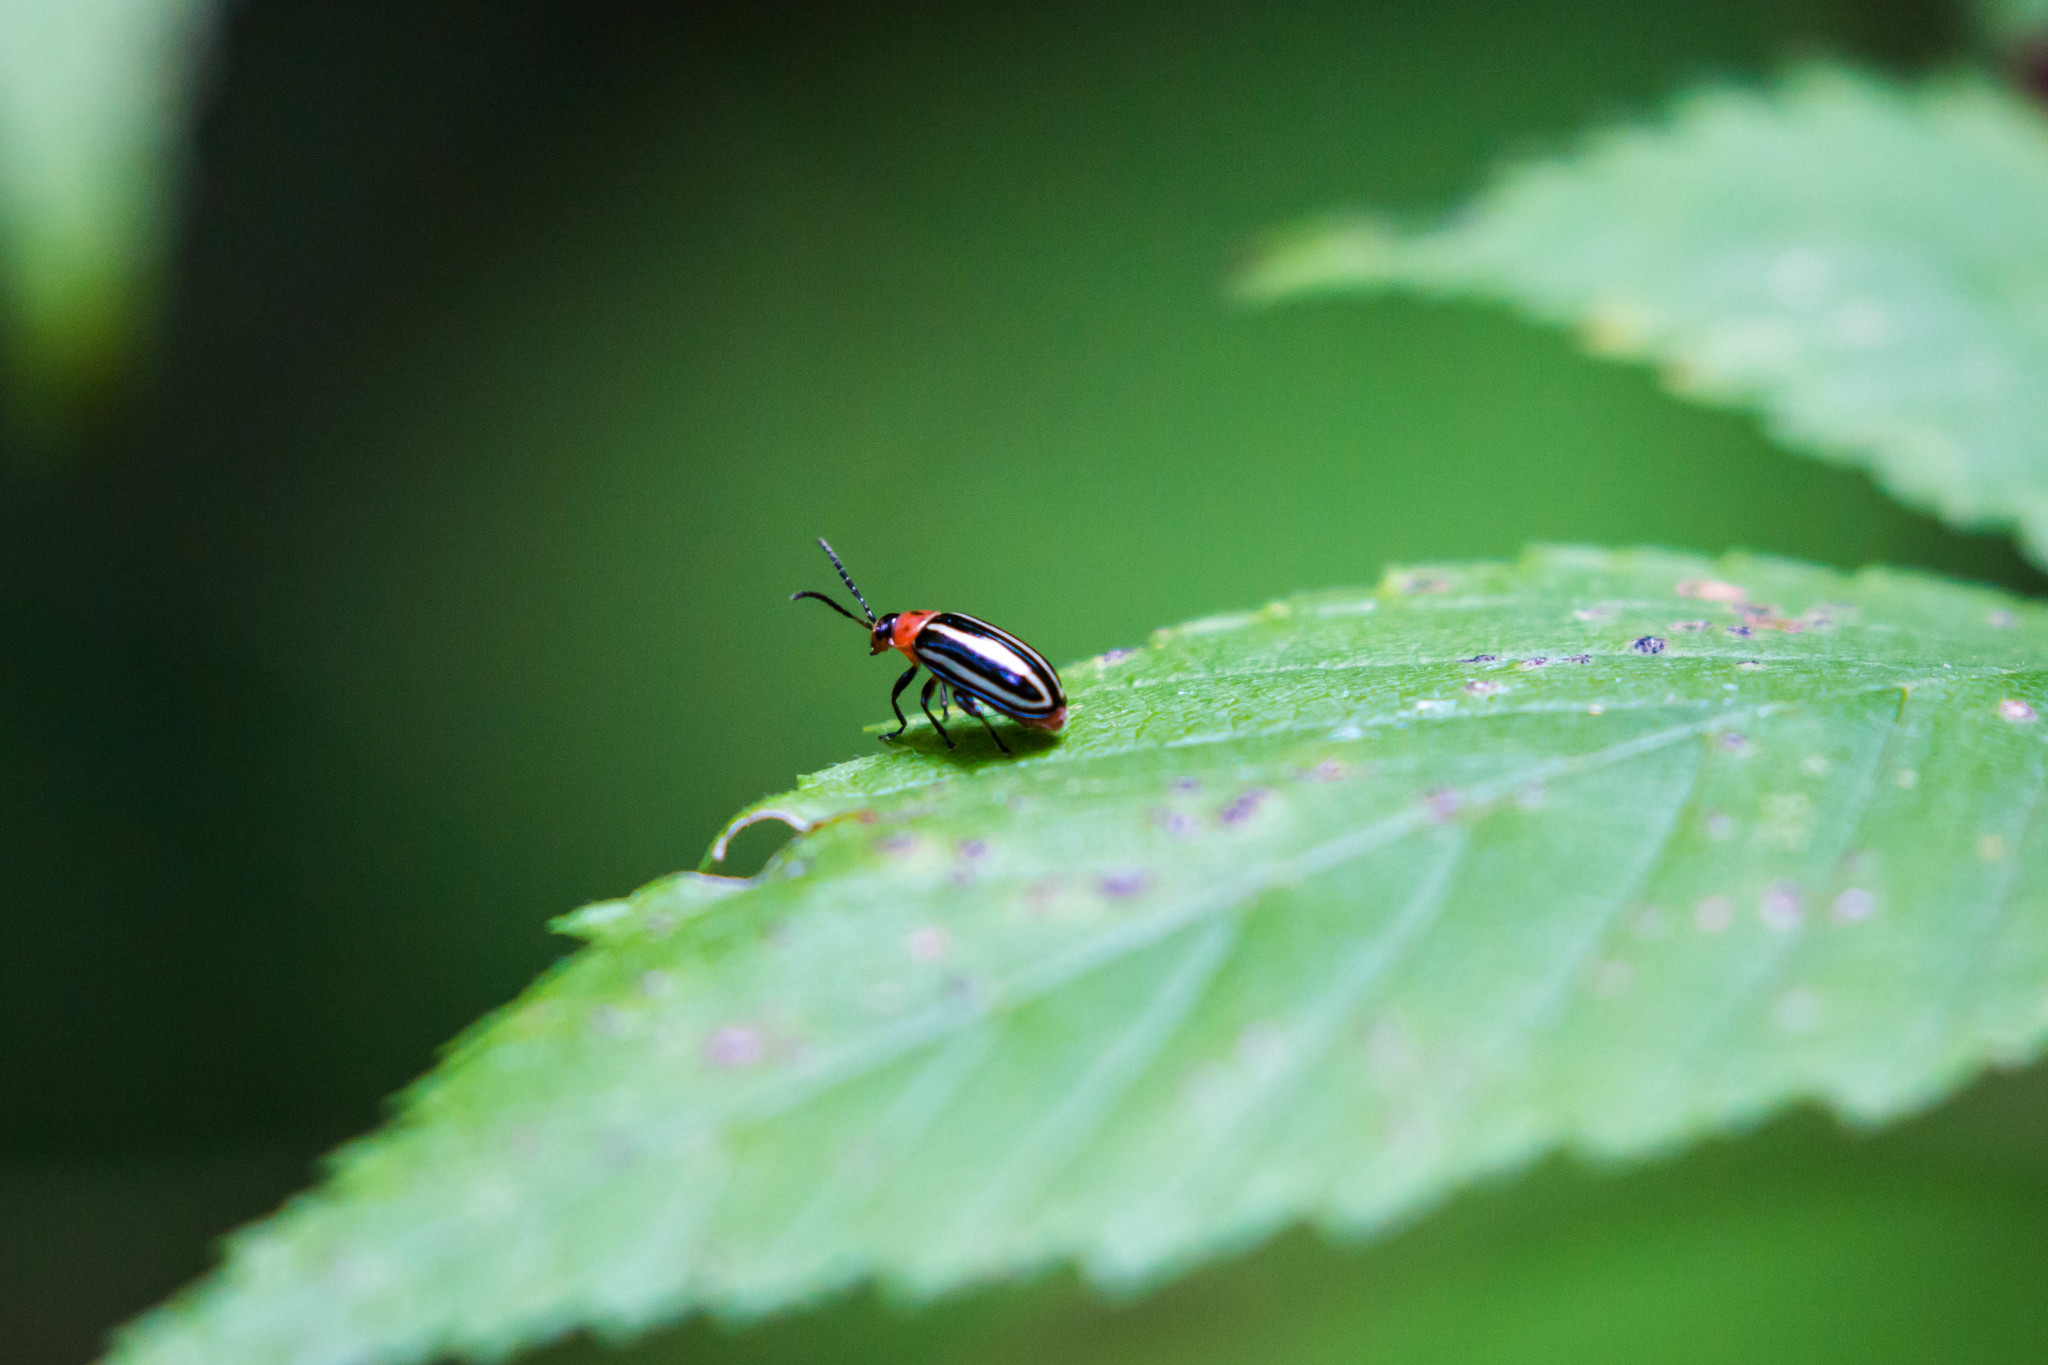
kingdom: Animalia
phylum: Arthropoda
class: Insecta
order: Coleoptera
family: Chrysomelidae
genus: Disonycha
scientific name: Disonycha glabrata
